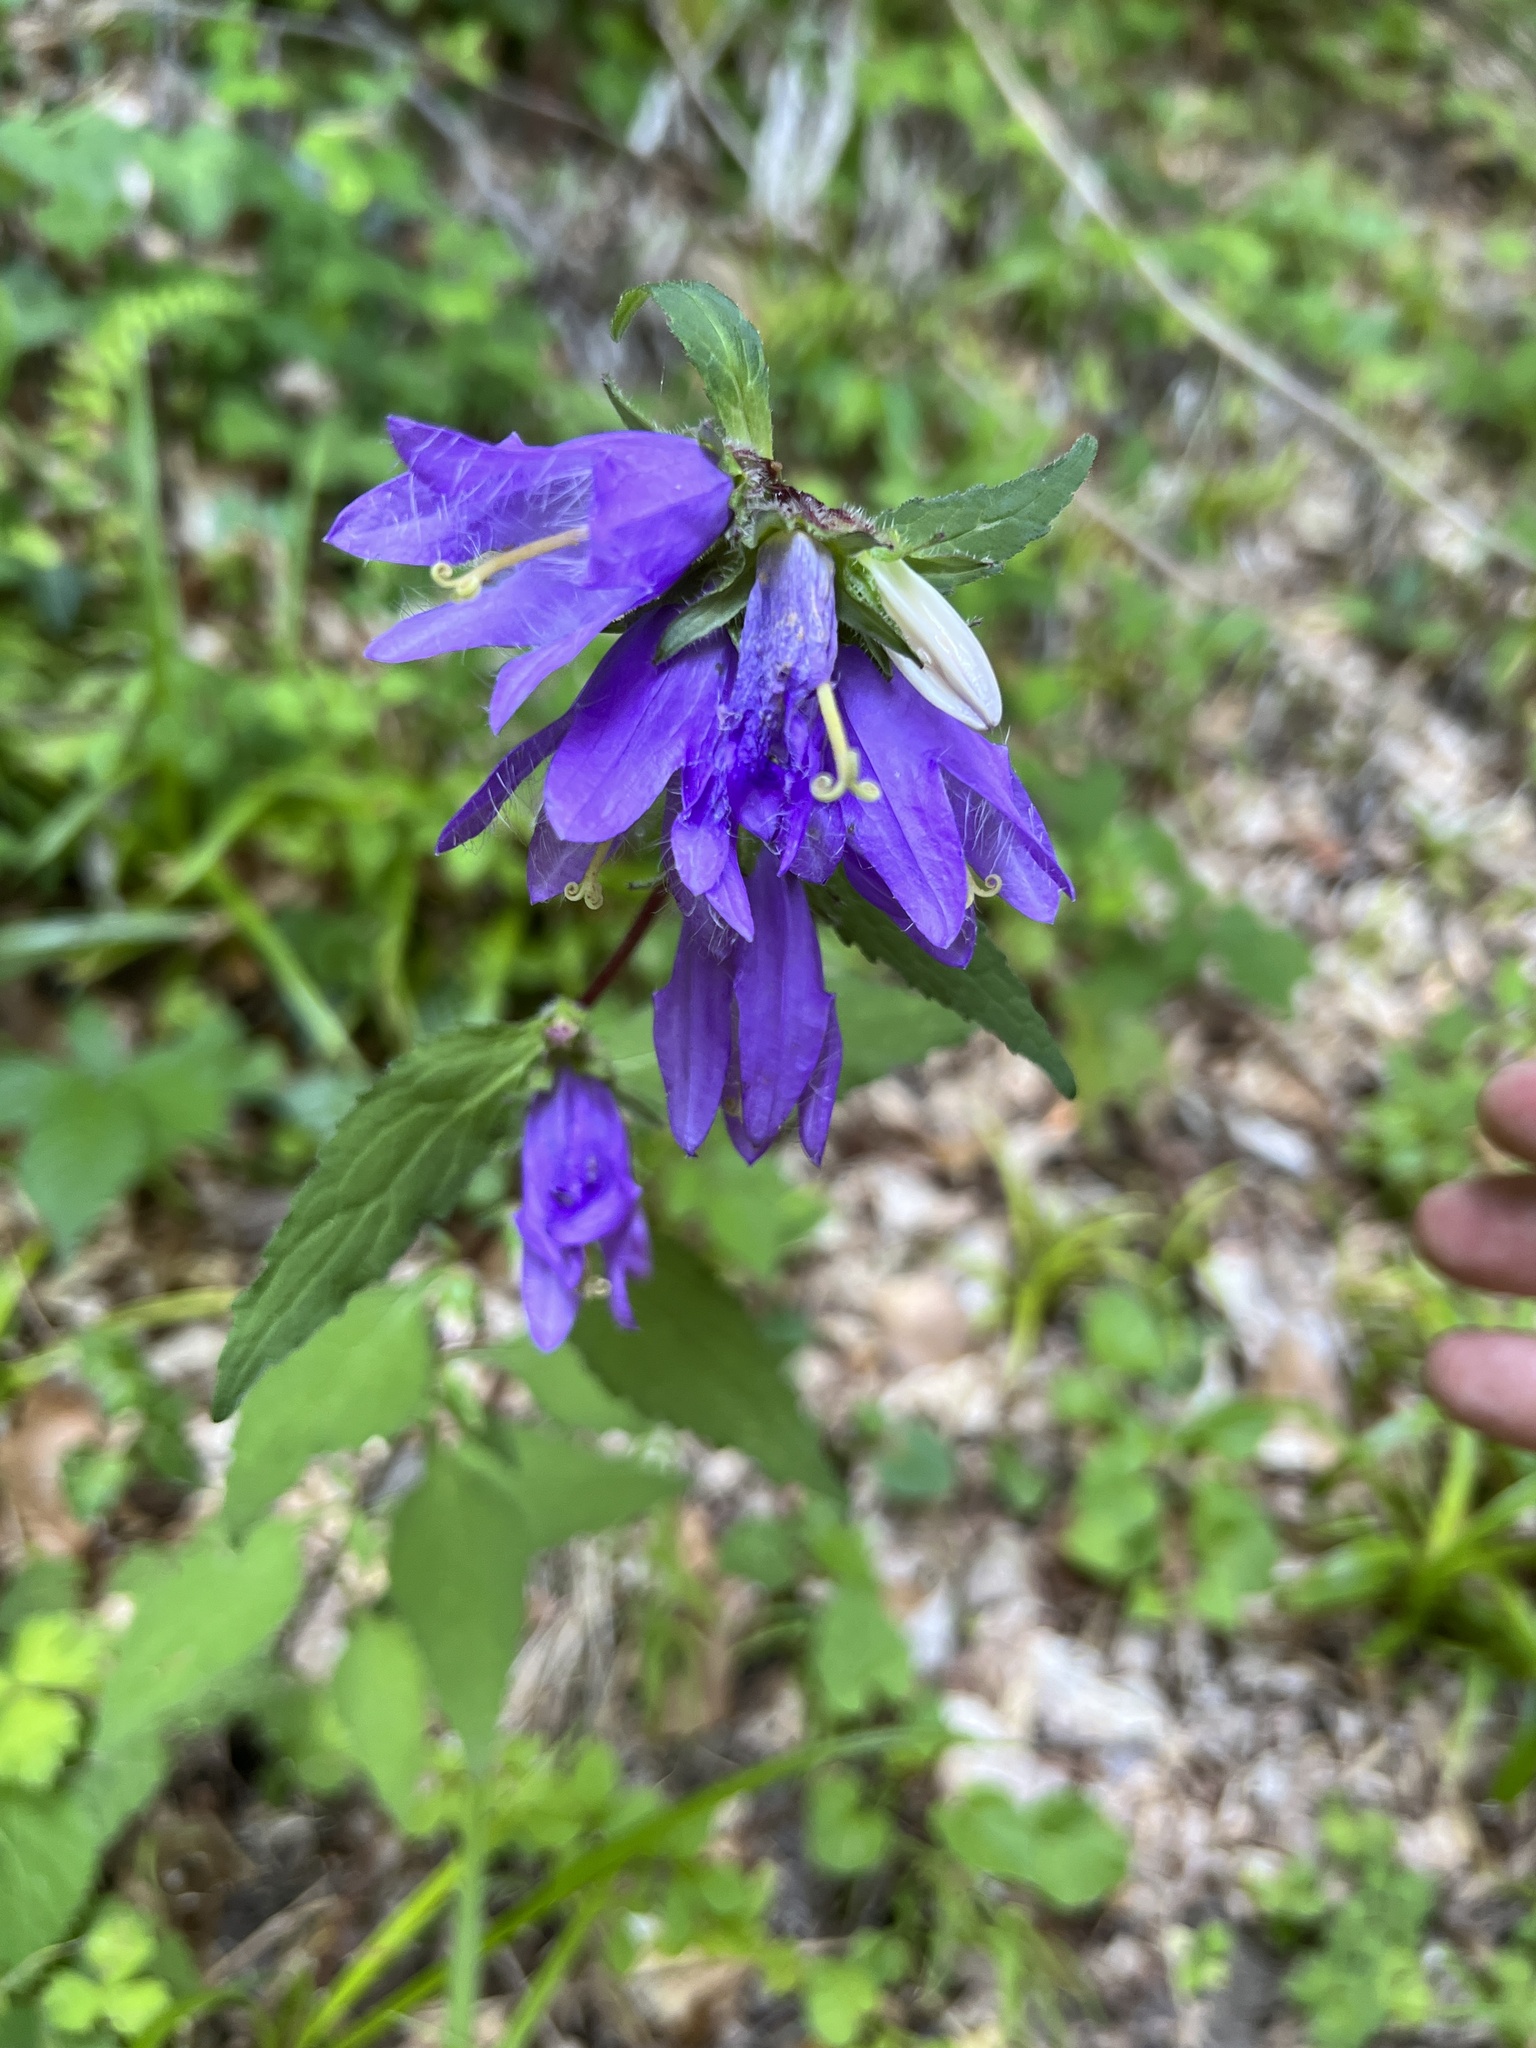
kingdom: Plantae
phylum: Tracheophyta
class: Magnoliopsida
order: Asterales
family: Campanulaceae
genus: Campanula
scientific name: Campanula trachelium
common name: Nettle-leaved bellflower
